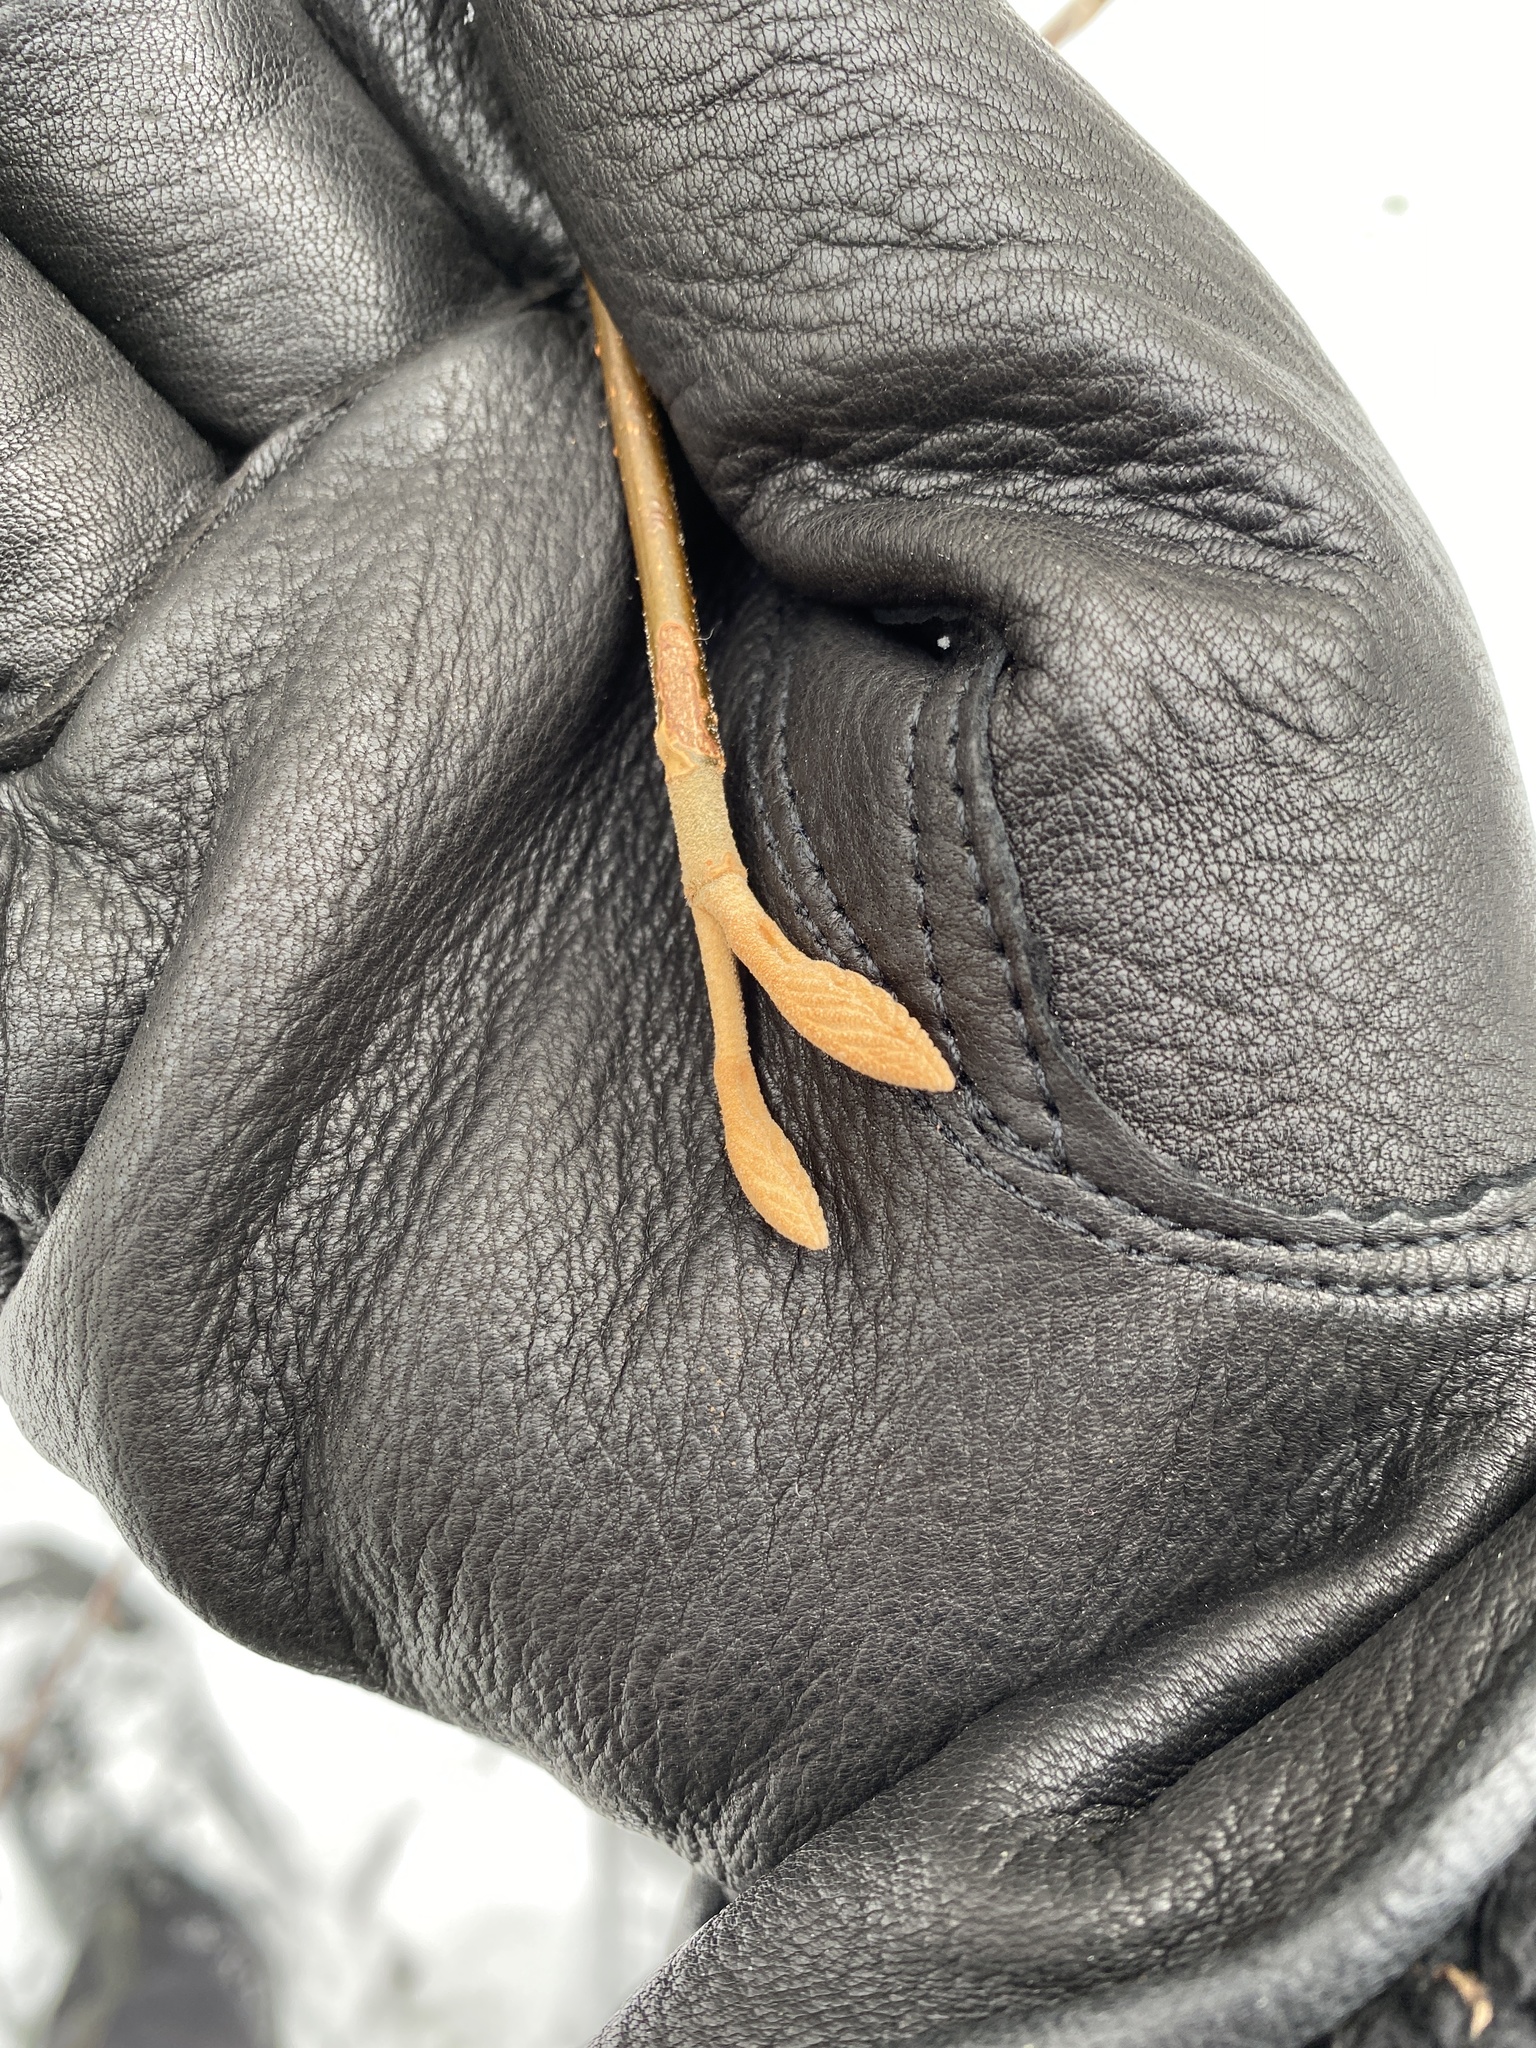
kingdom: Plantae
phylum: Tracheophyta
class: Magnoliopsida
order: Dipsacales
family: Viburnaceae
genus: Viburnum
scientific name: Viburnum lantanoides
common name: Hobblebush
